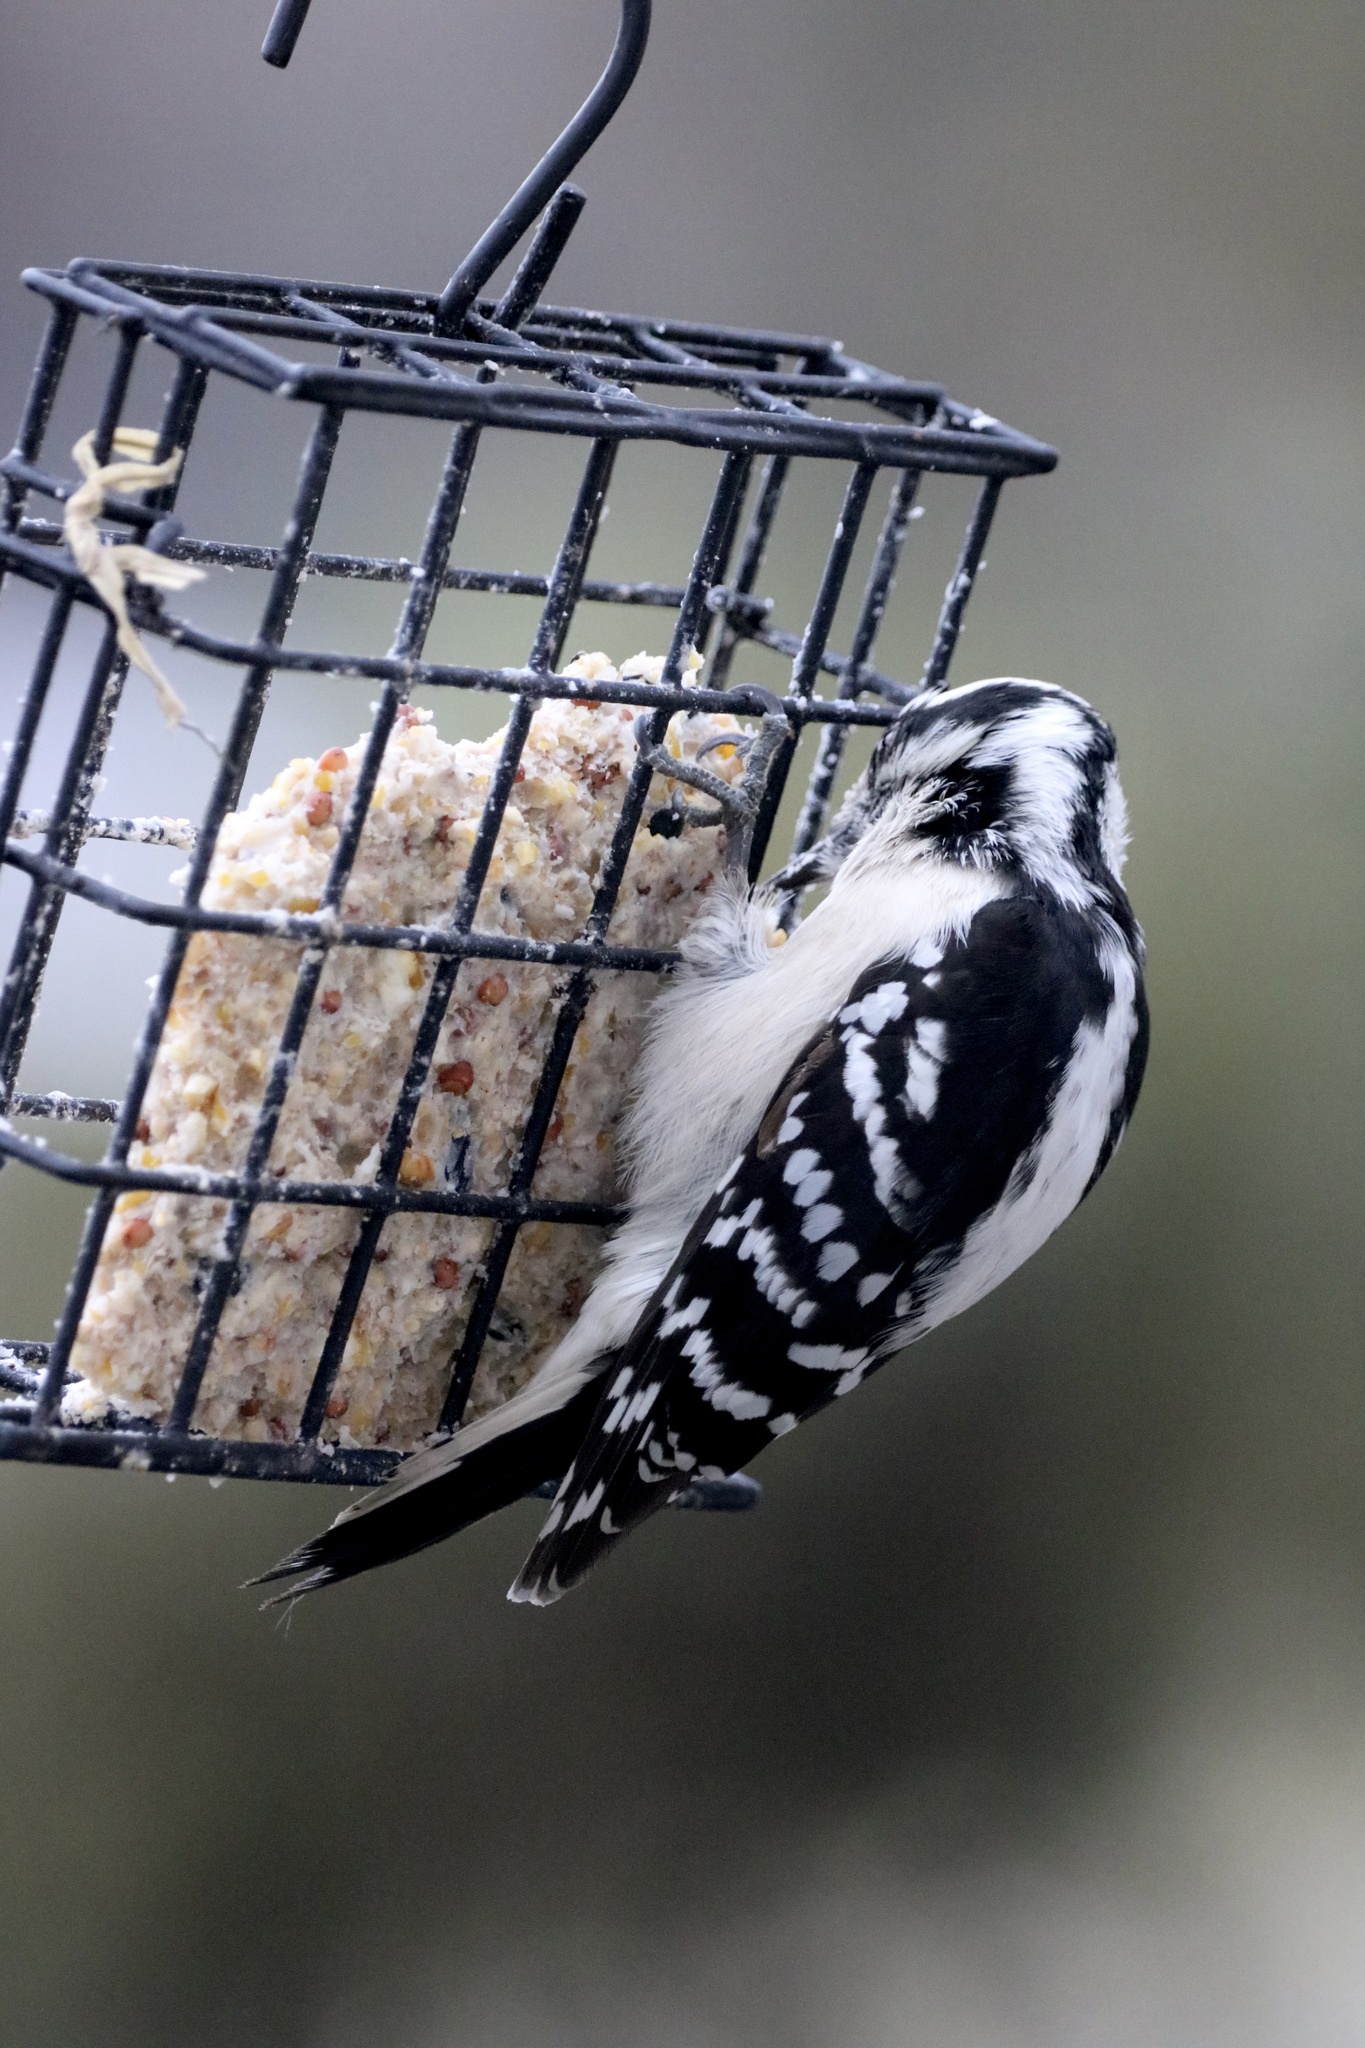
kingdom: Animalia
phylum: Chordata
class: Aves
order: Piciformes
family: Picidae
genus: Dryobates
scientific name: Dryobates pubescens
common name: Downy woodpecker
